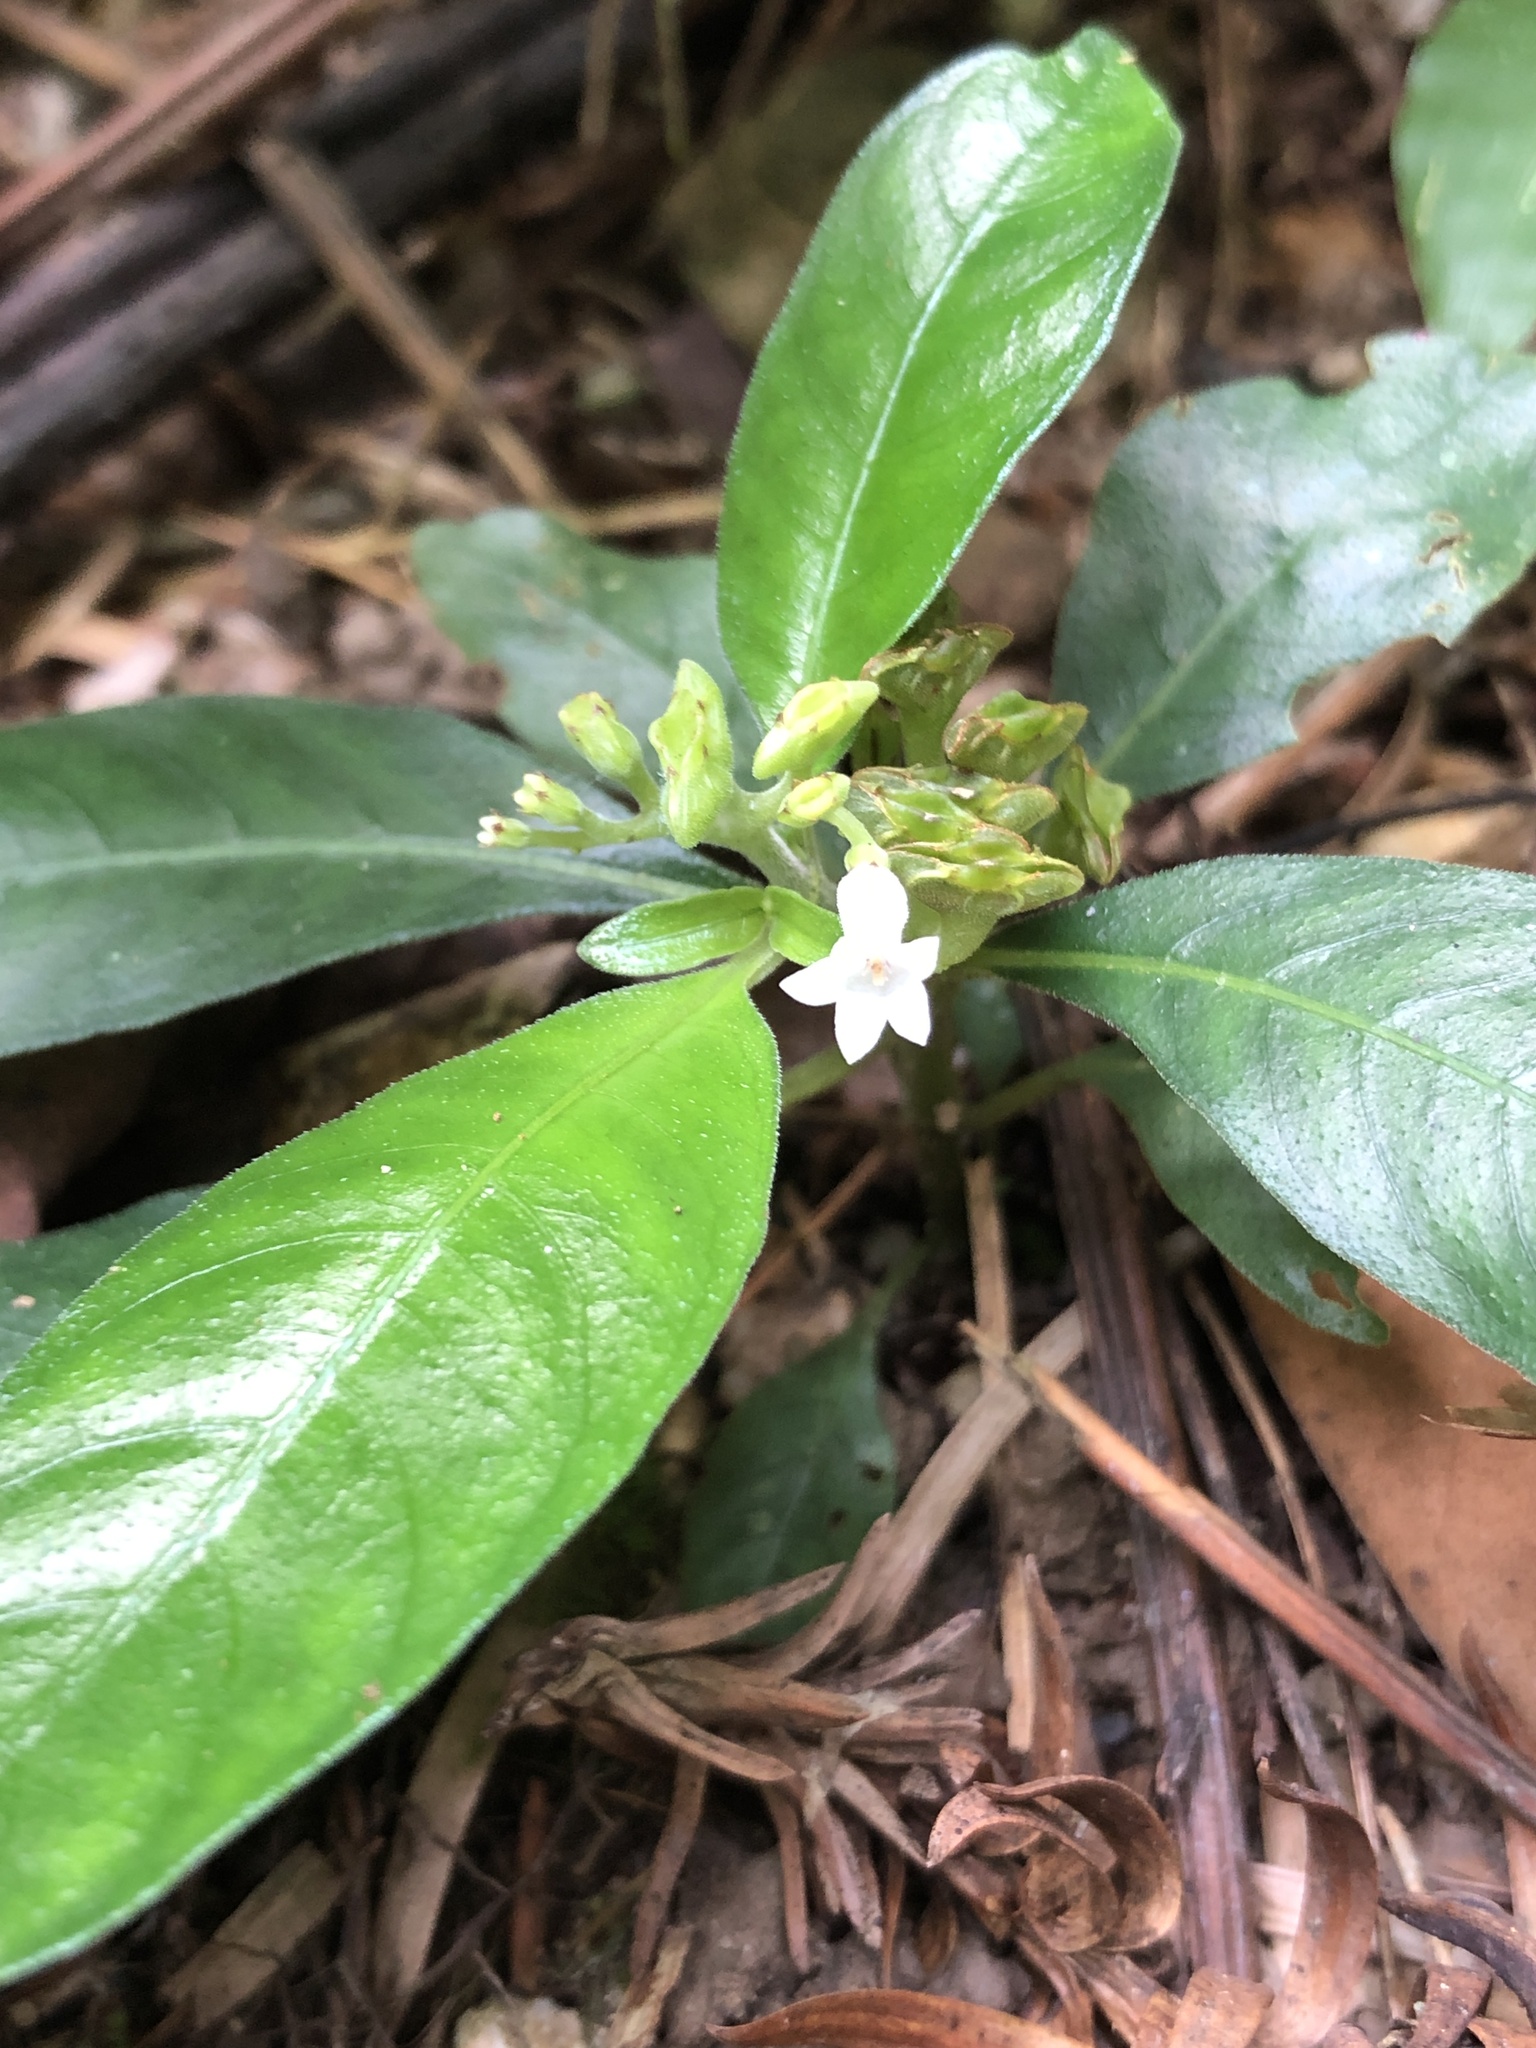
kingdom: Plantae
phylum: Tracheophyta
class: Magnoliopsida
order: Gentianales
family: Rubiaceae
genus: Ophiorrhiza
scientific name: Ophiorrhiza pumila
